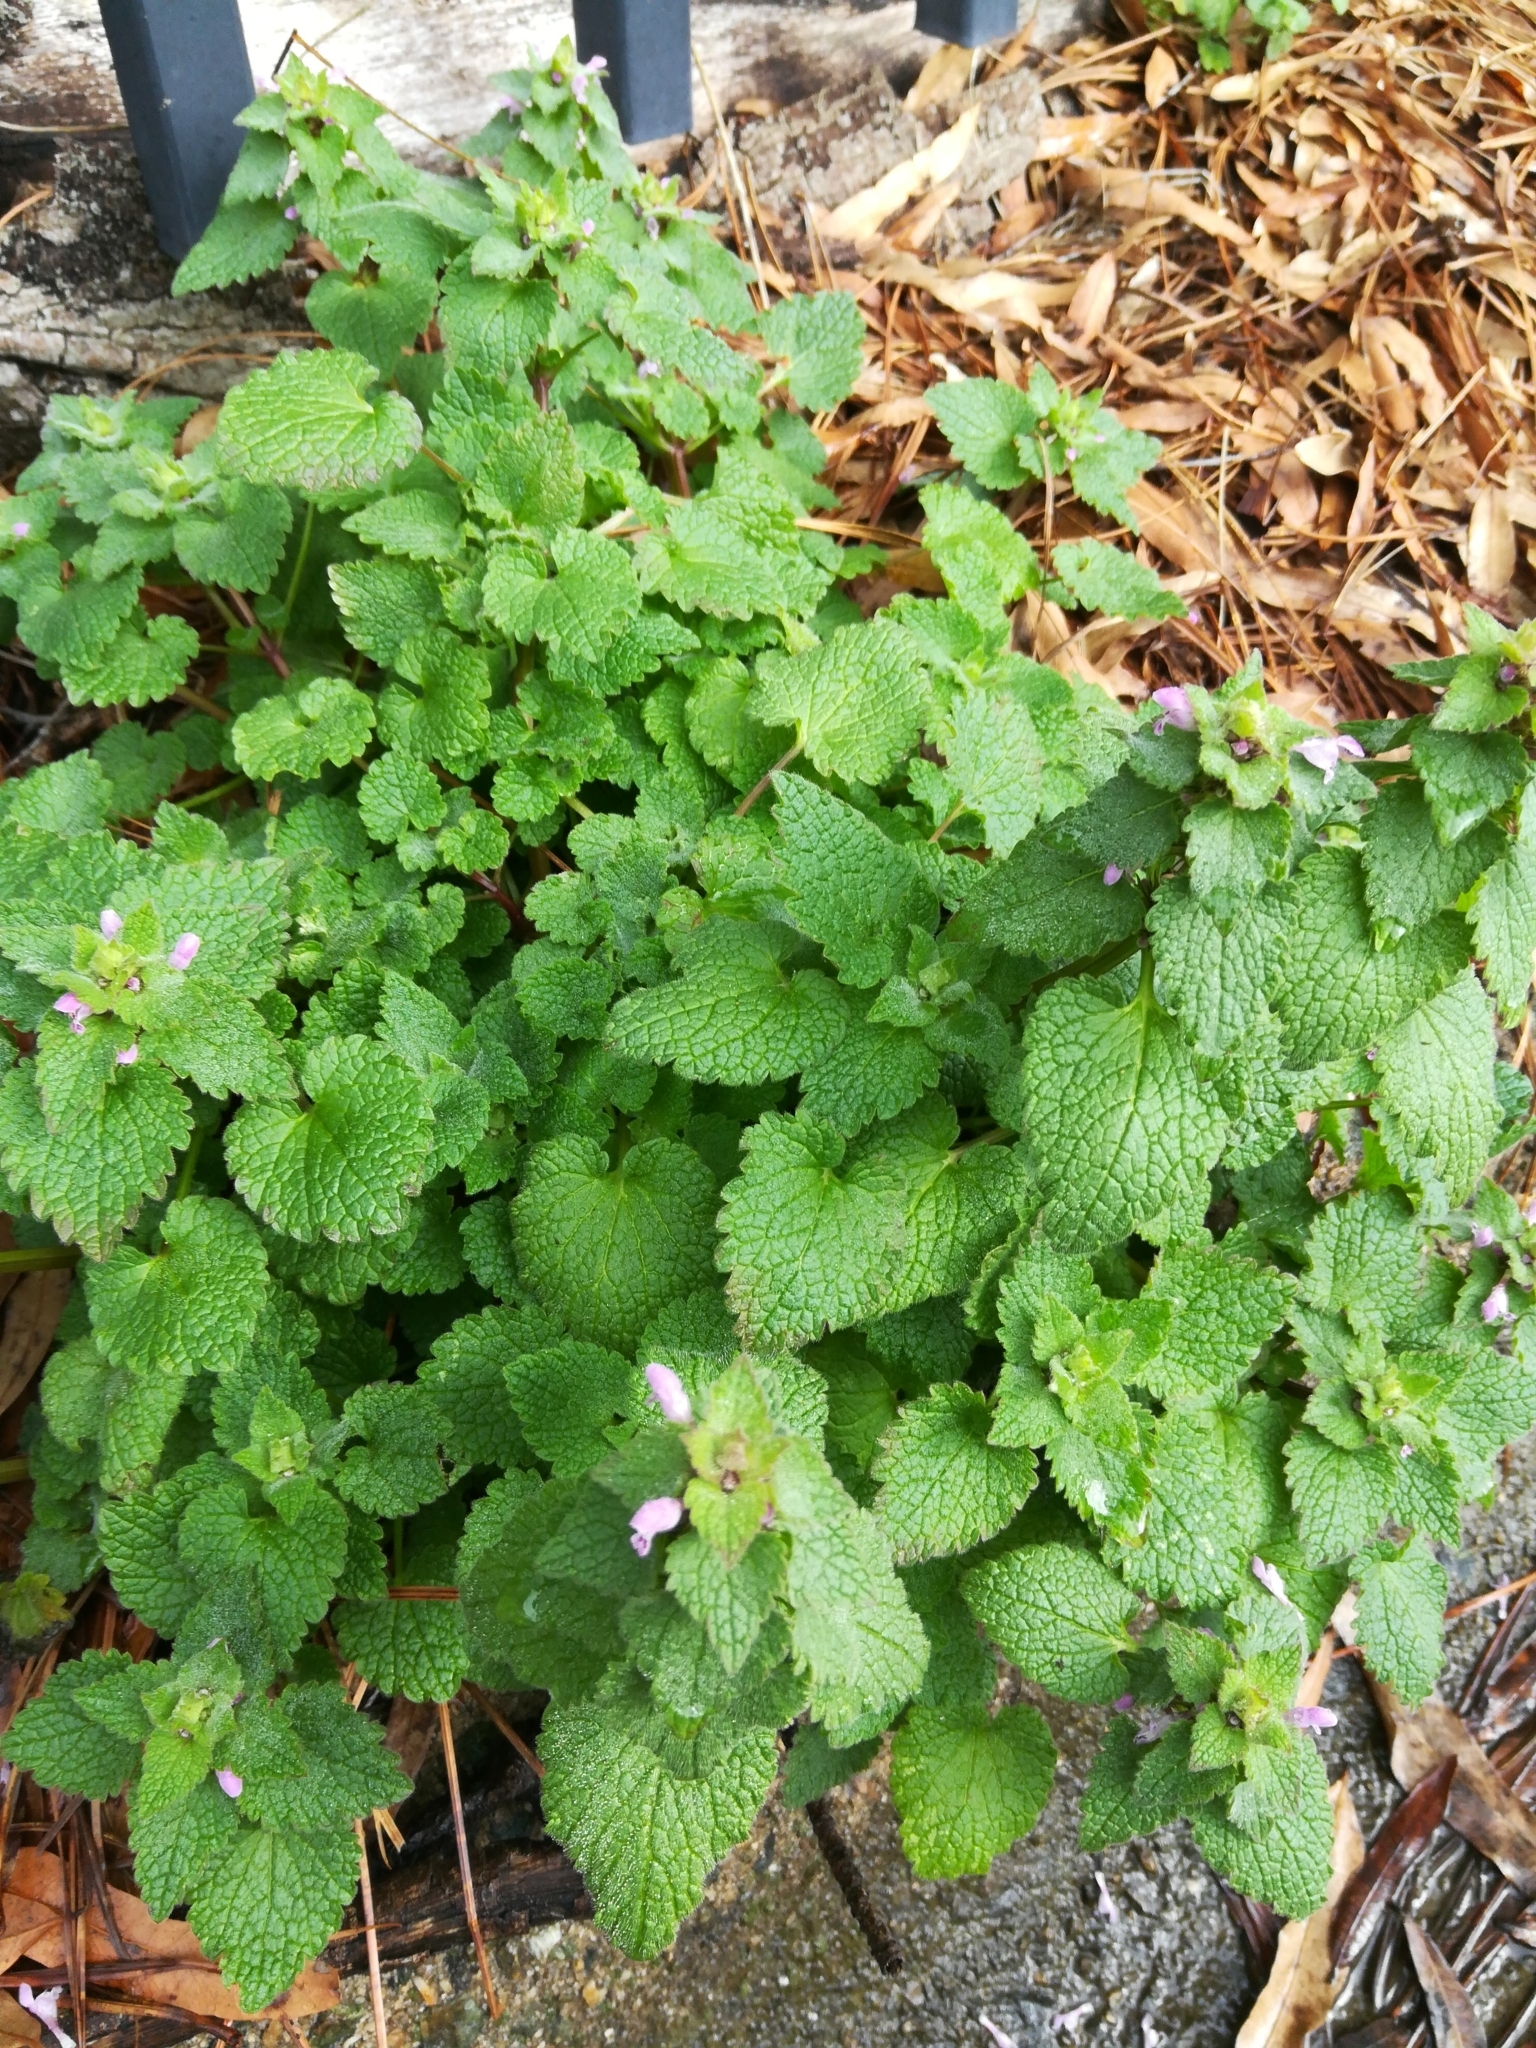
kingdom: Plantae
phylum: Tracheophyta
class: Magnoliopsida
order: Lamiales
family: Lamiaceae
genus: Lamium
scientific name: Lamium purpureum
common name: Red dead-nettle
